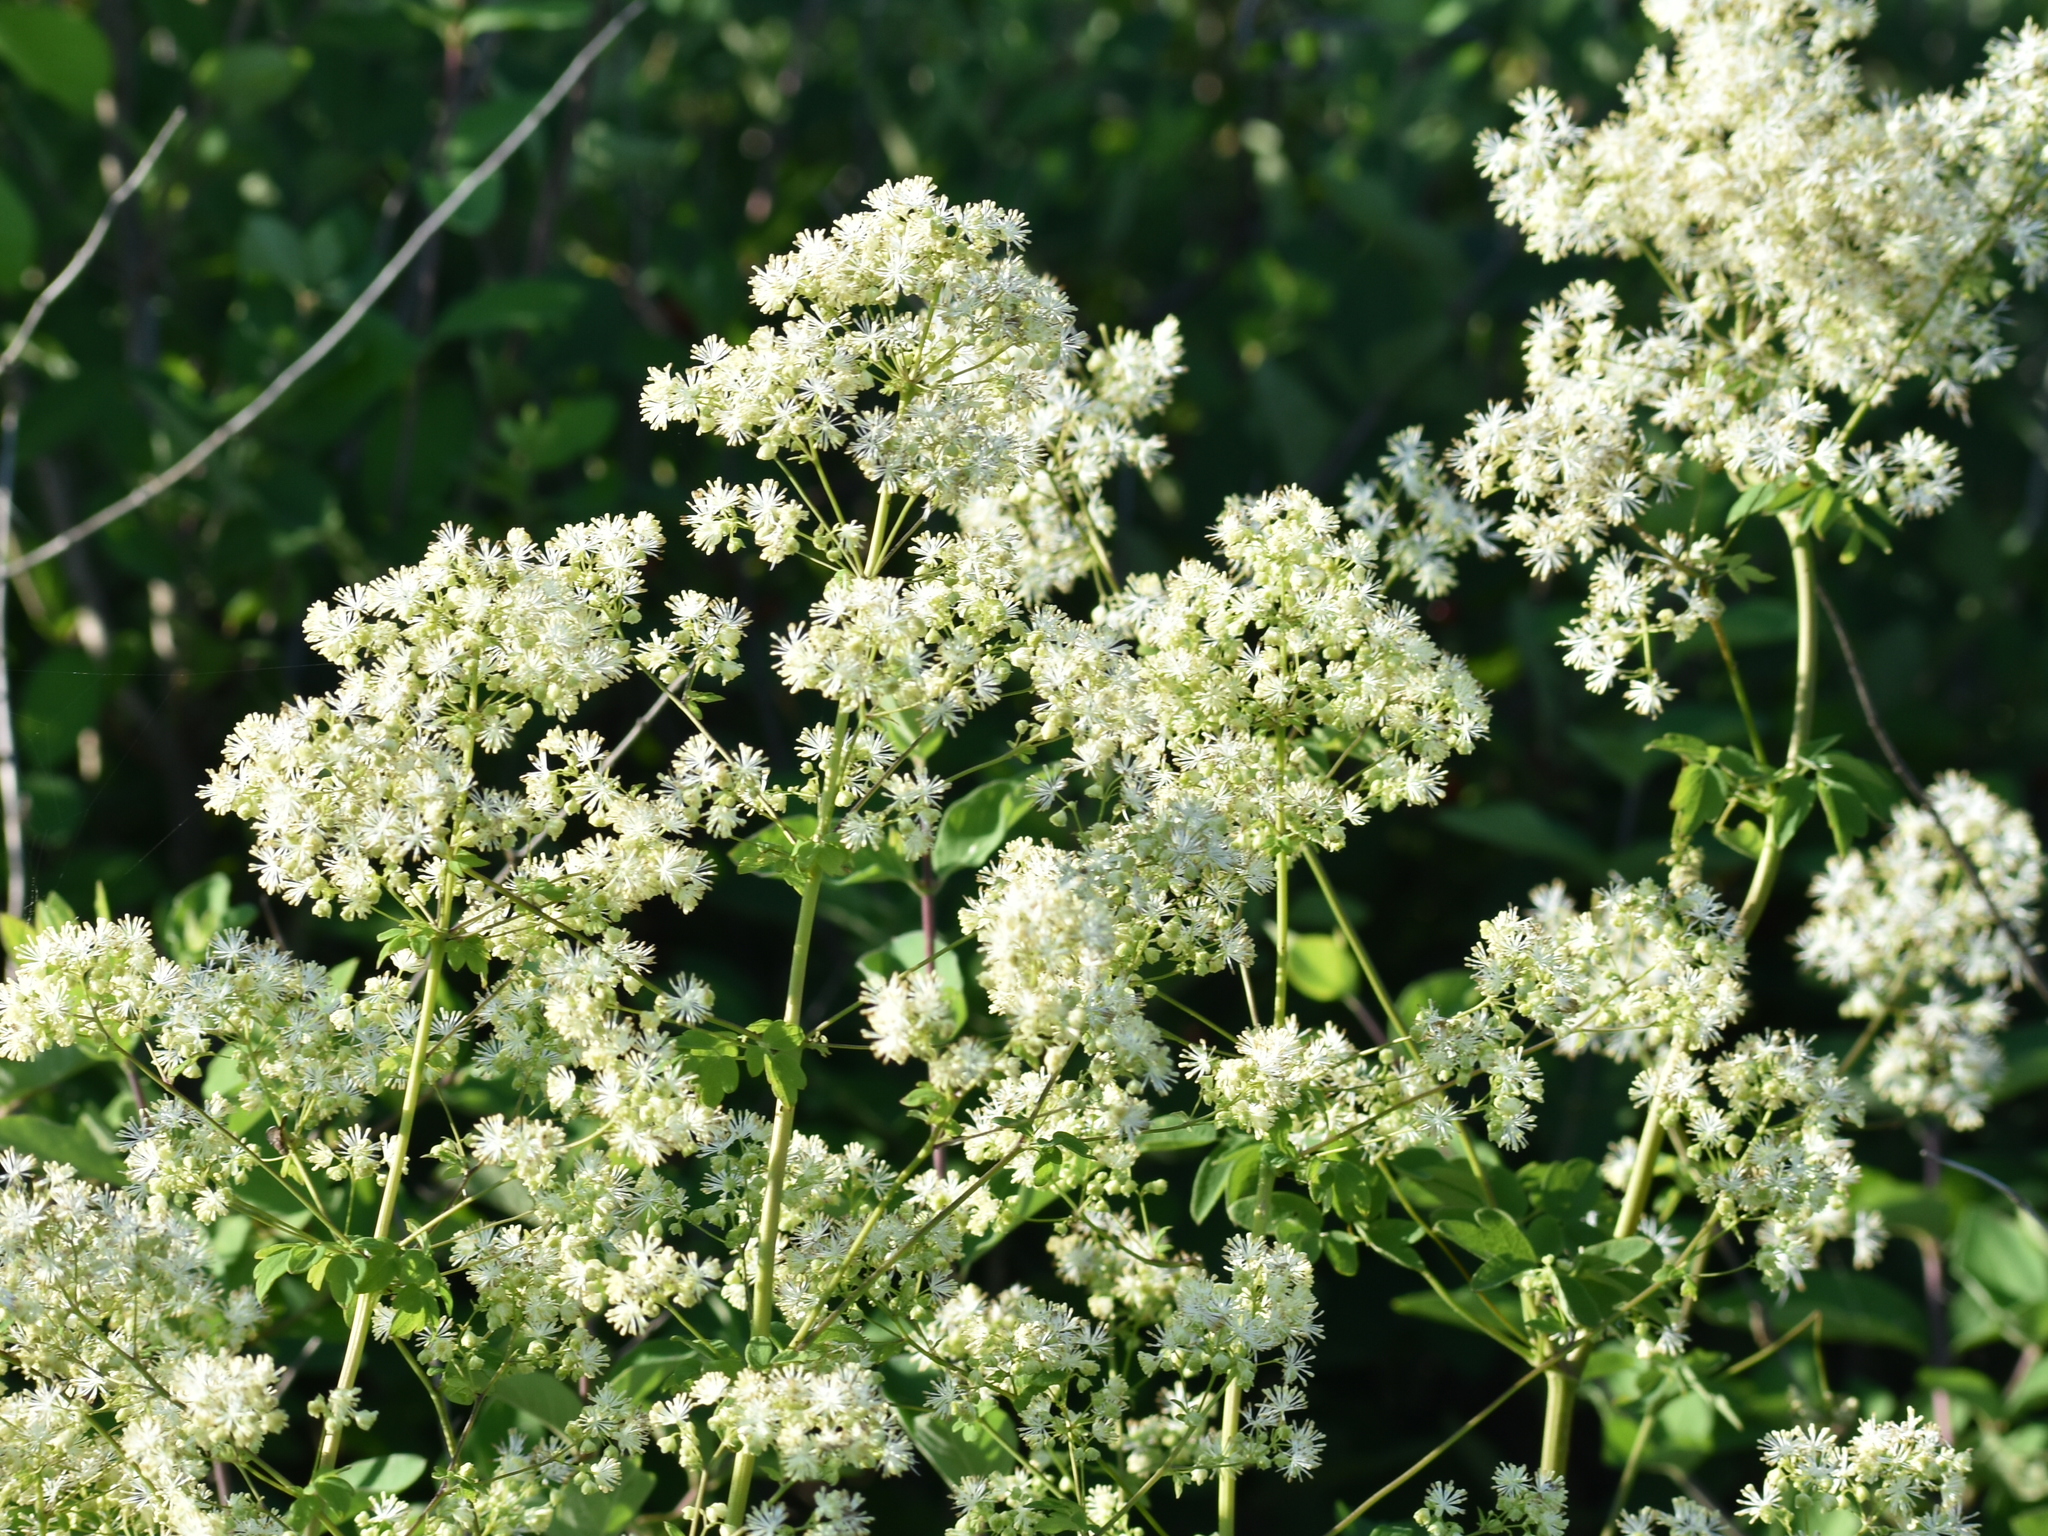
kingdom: Plantae
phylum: Tracheophyta
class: Magnoliopsida
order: Ranunculales
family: Ranunculaceae
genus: Thalictrum
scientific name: Thalictrum pubescens
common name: King-of-the-meadow
